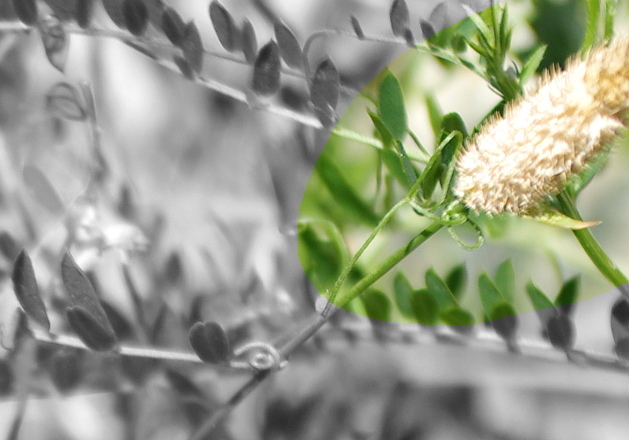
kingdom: Plantae
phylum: Tracheophyta
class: Liliopsida
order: Poales
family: Poaceae
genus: Phleum
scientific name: Phleum pratense
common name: Timothy grass
